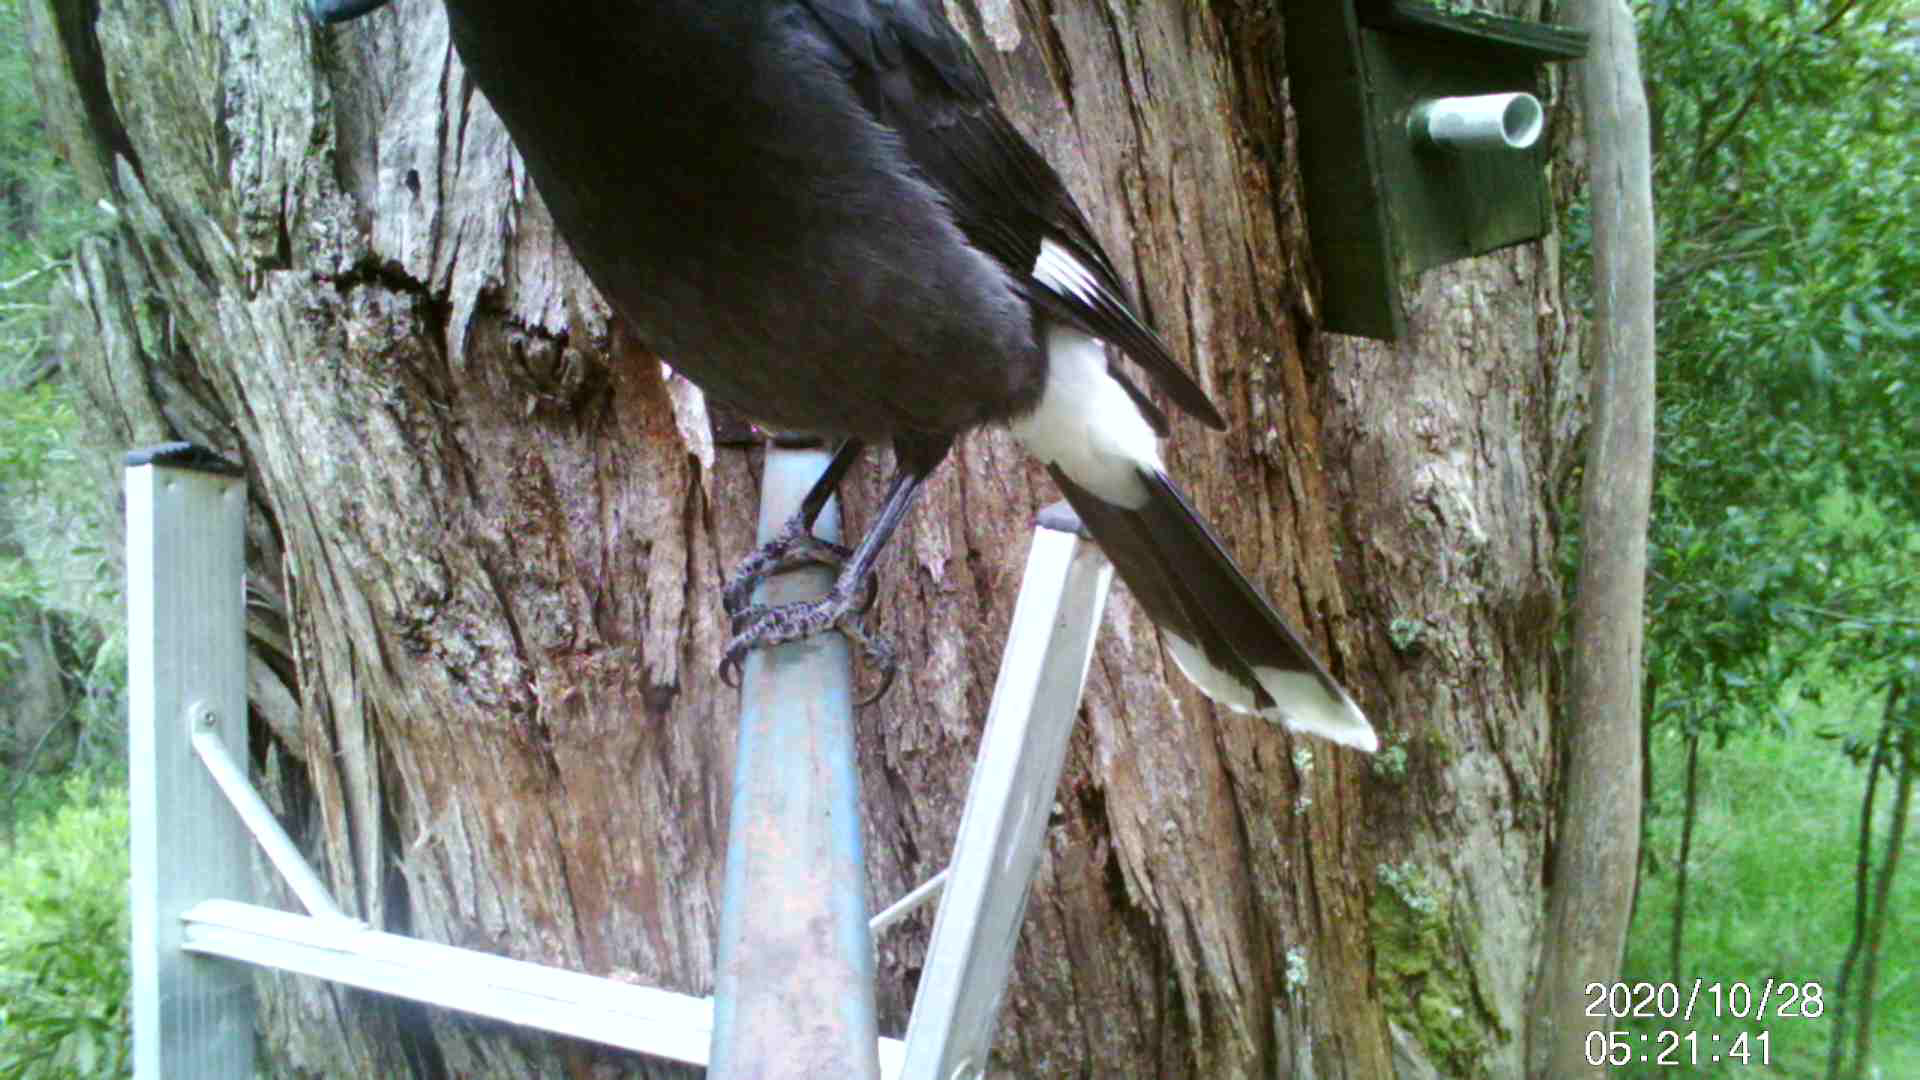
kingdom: Animalia
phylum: Chordata
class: Aves
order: Passeriformes
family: Cracticidae
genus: Strepera
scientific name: Strepera graculina
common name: Pied currawong
